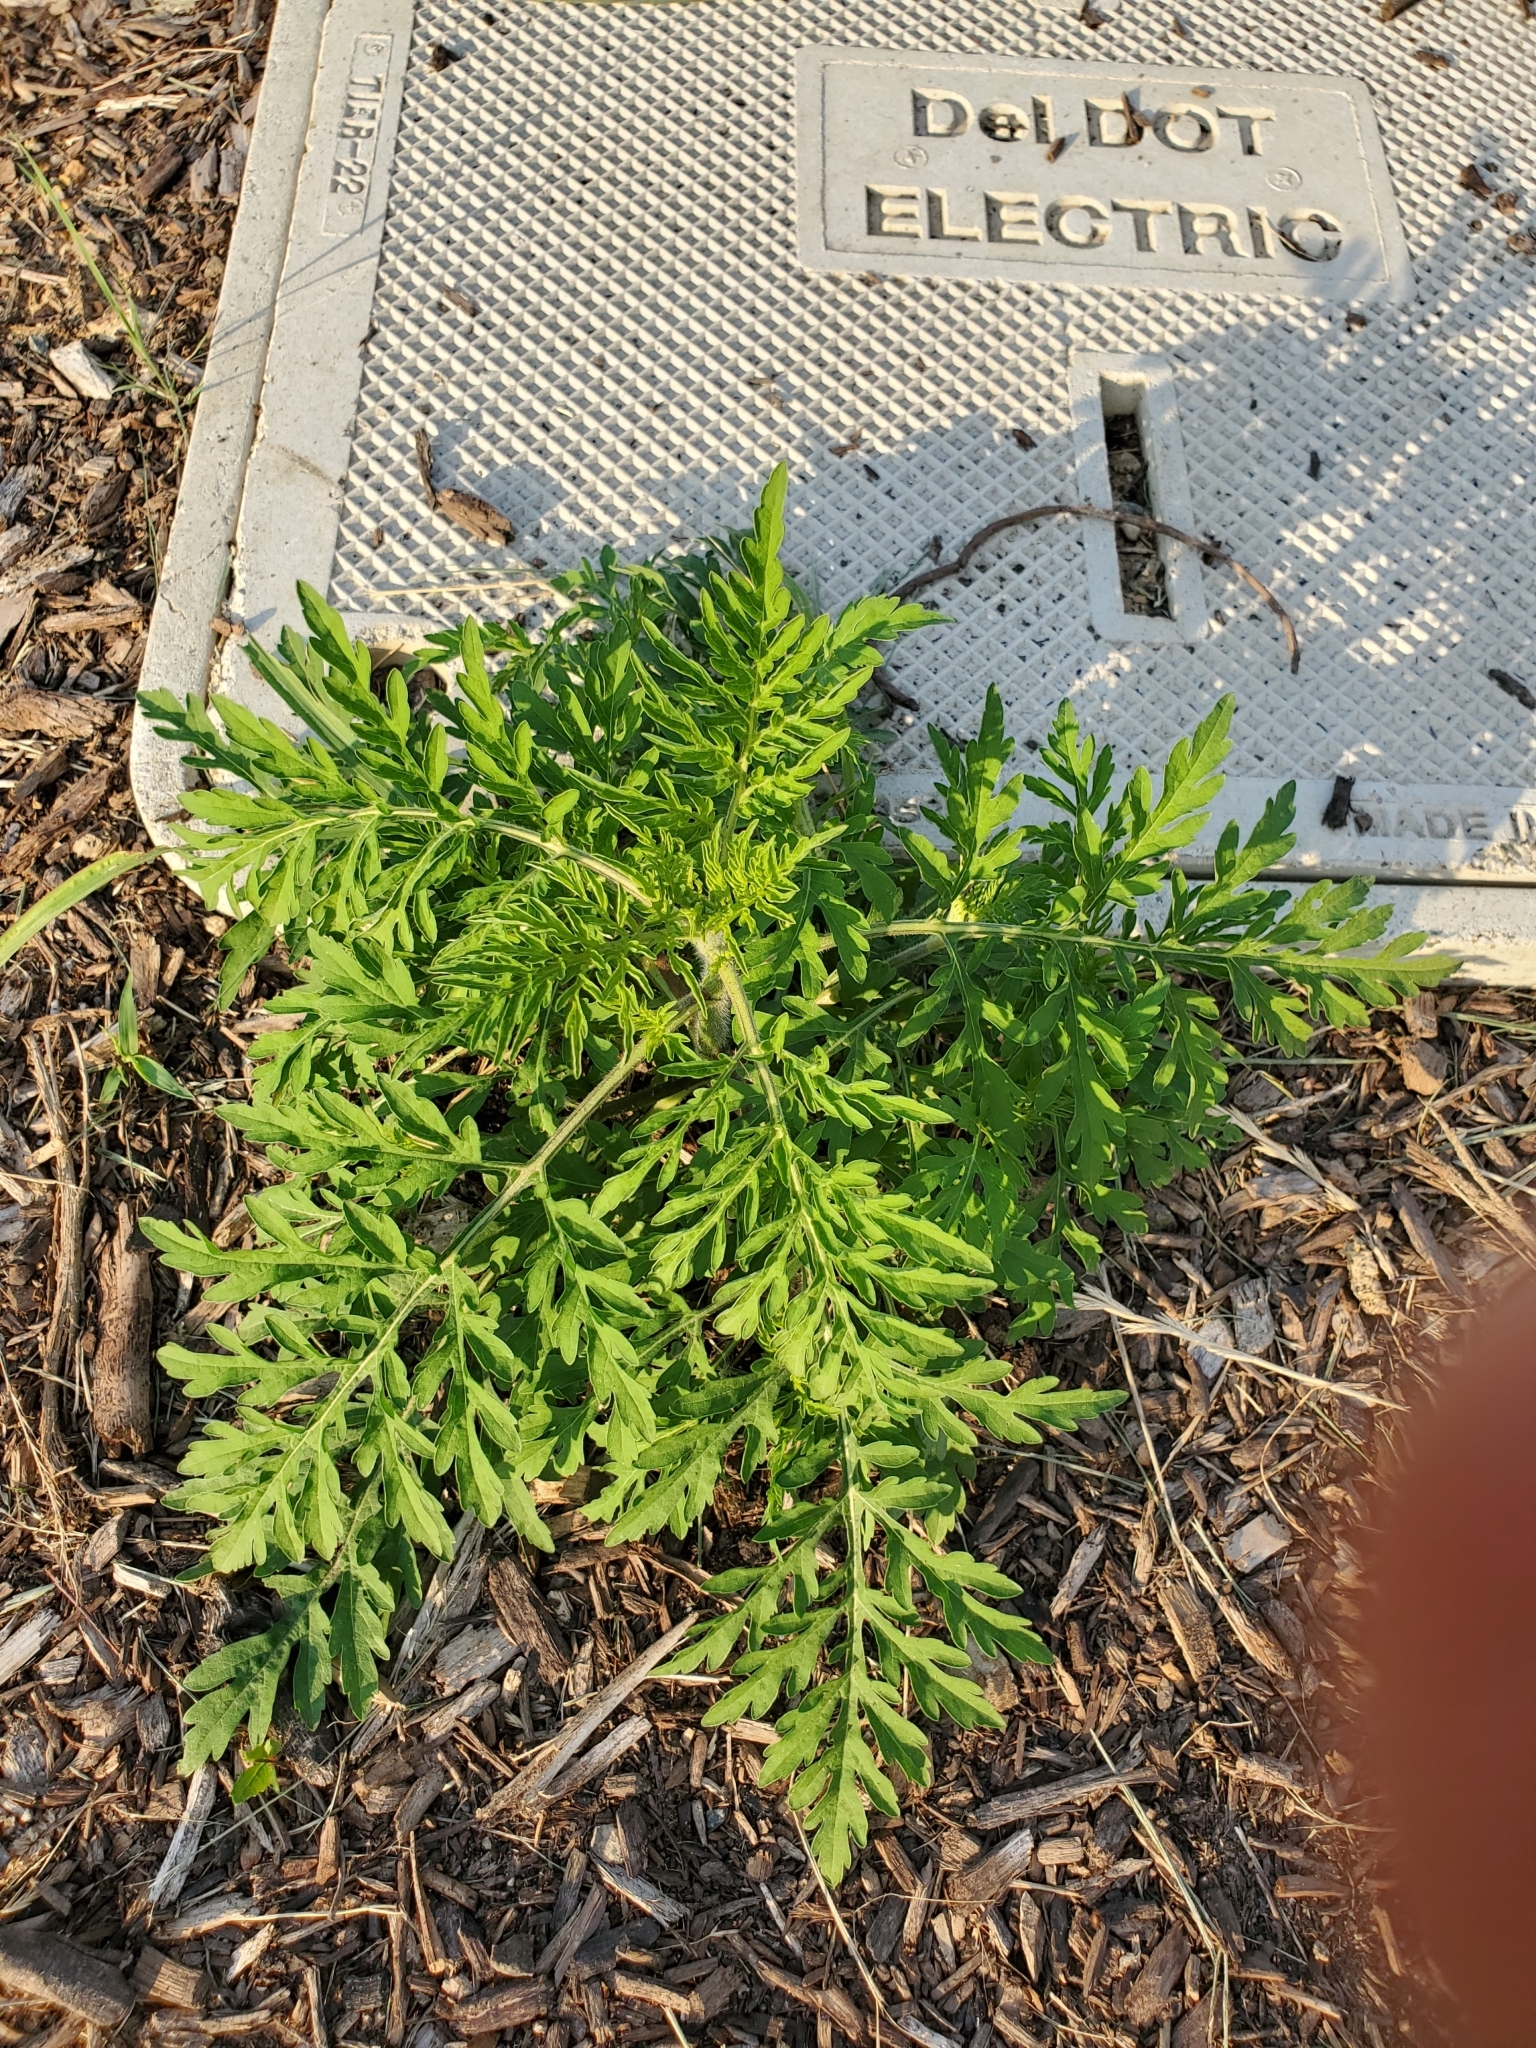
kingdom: Plantae
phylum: Tracheophyta
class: Magnoliopsida
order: Asterales
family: Asteraceae
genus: Ambrosia
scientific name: Ambrosia artemisiifolia
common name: Annual ragweed
